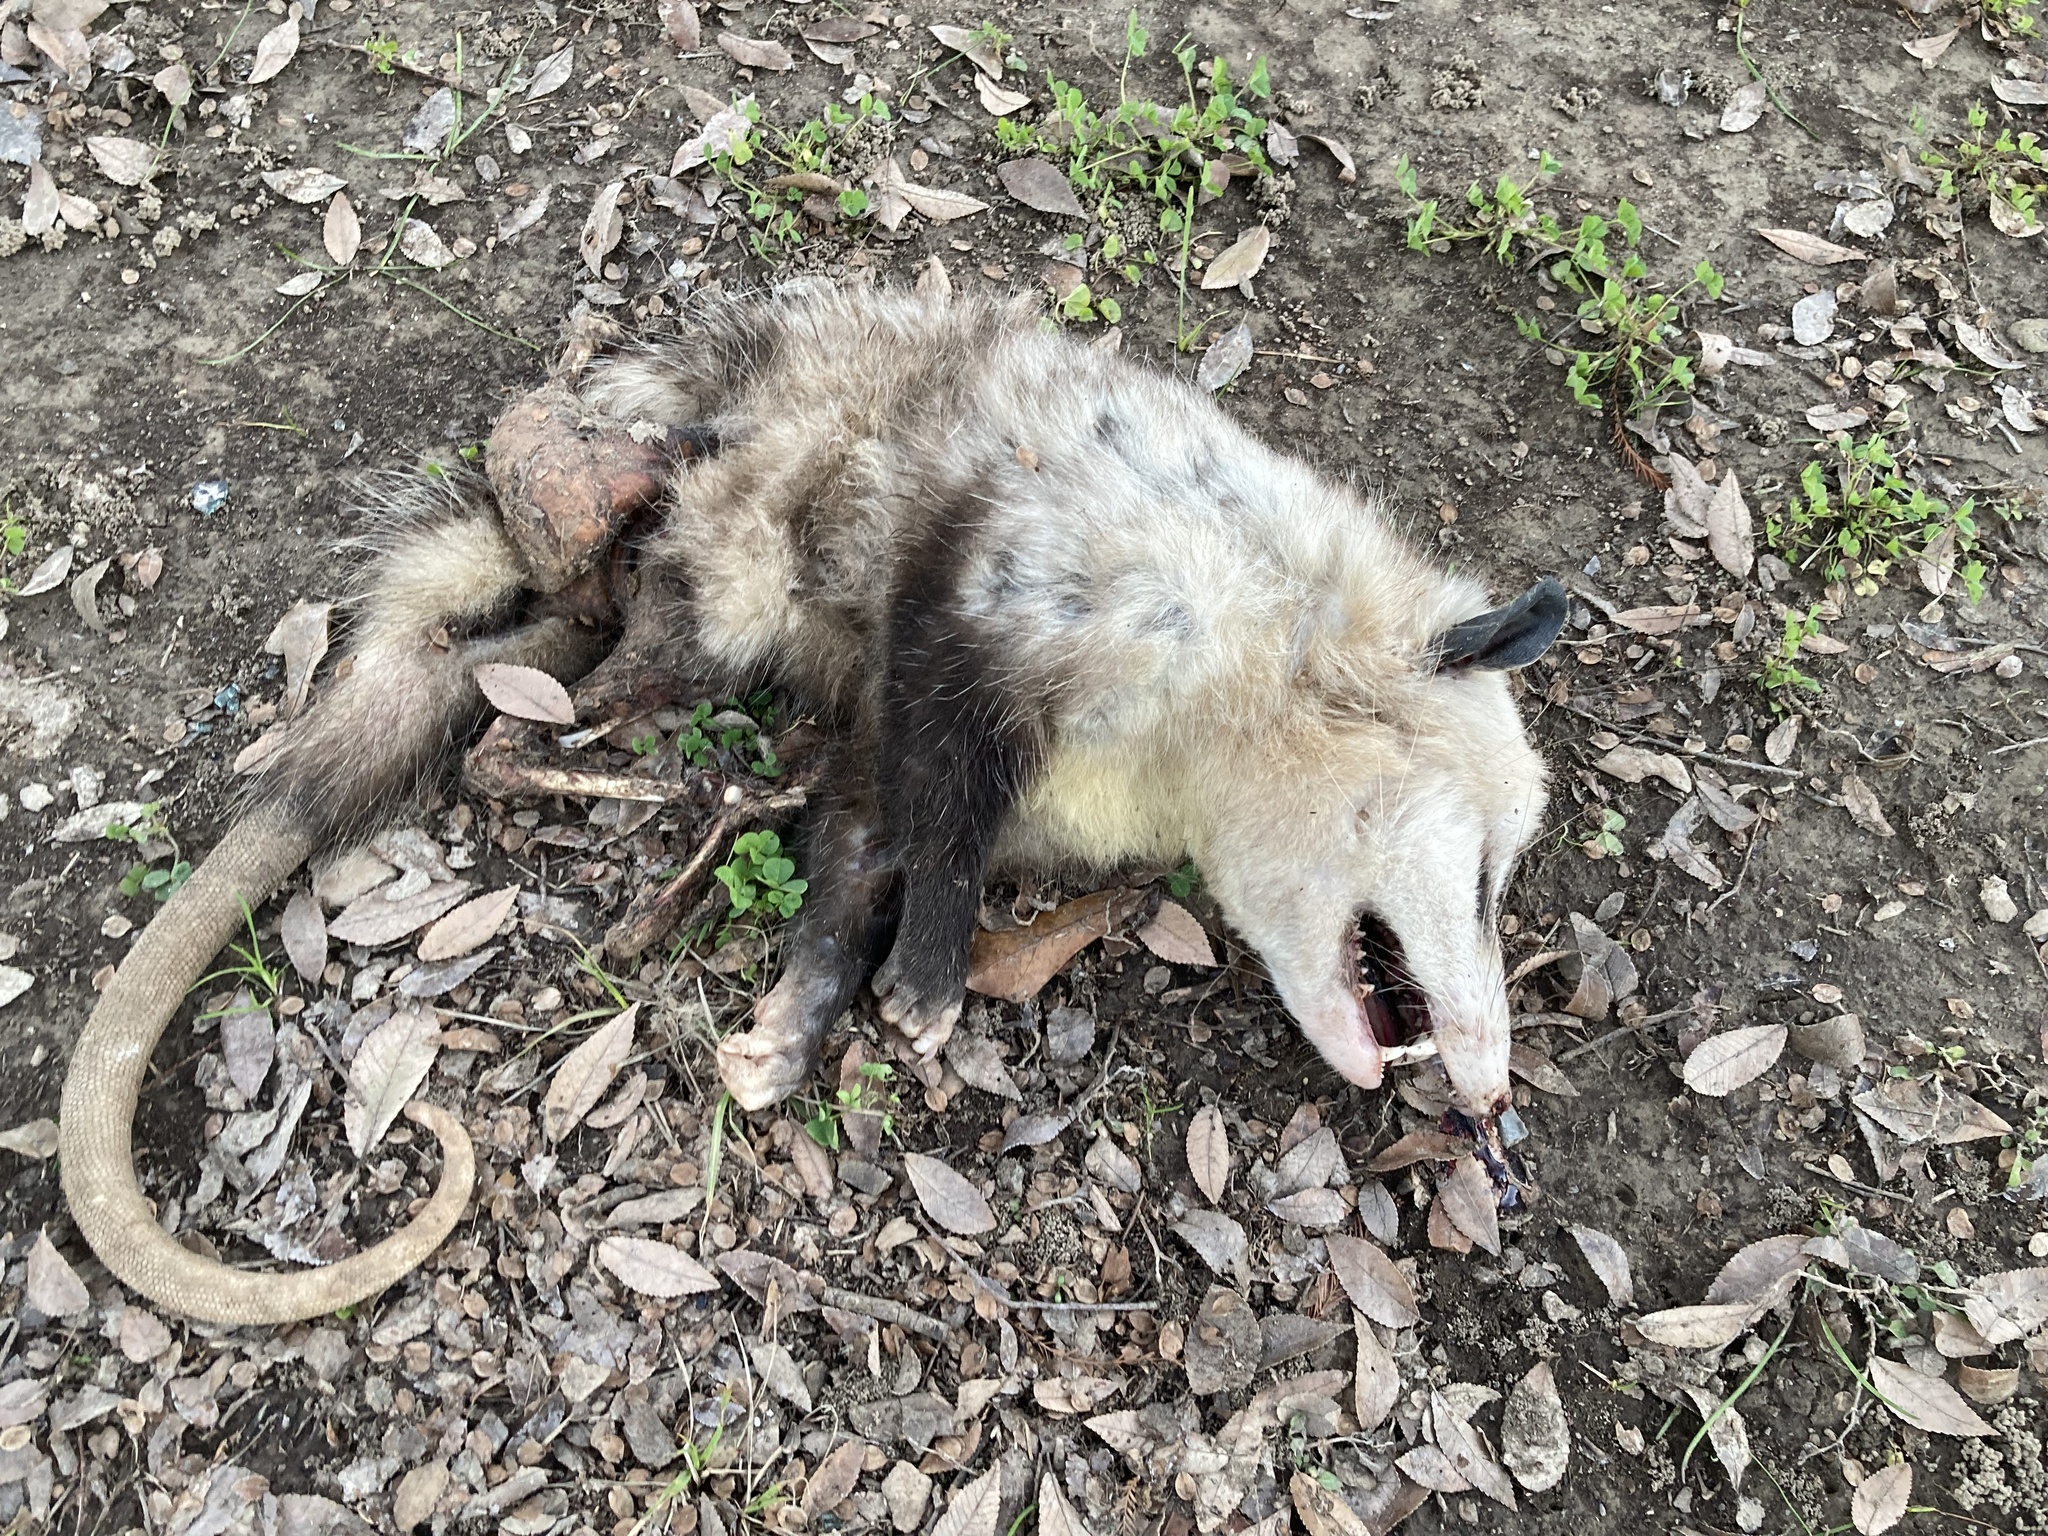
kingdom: Animalia
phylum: Chordata
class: Mammalia
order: Didelphimorphia
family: Didelphidae
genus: Didelphis
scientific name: Didelphis virginiana
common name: Virginia opossum
